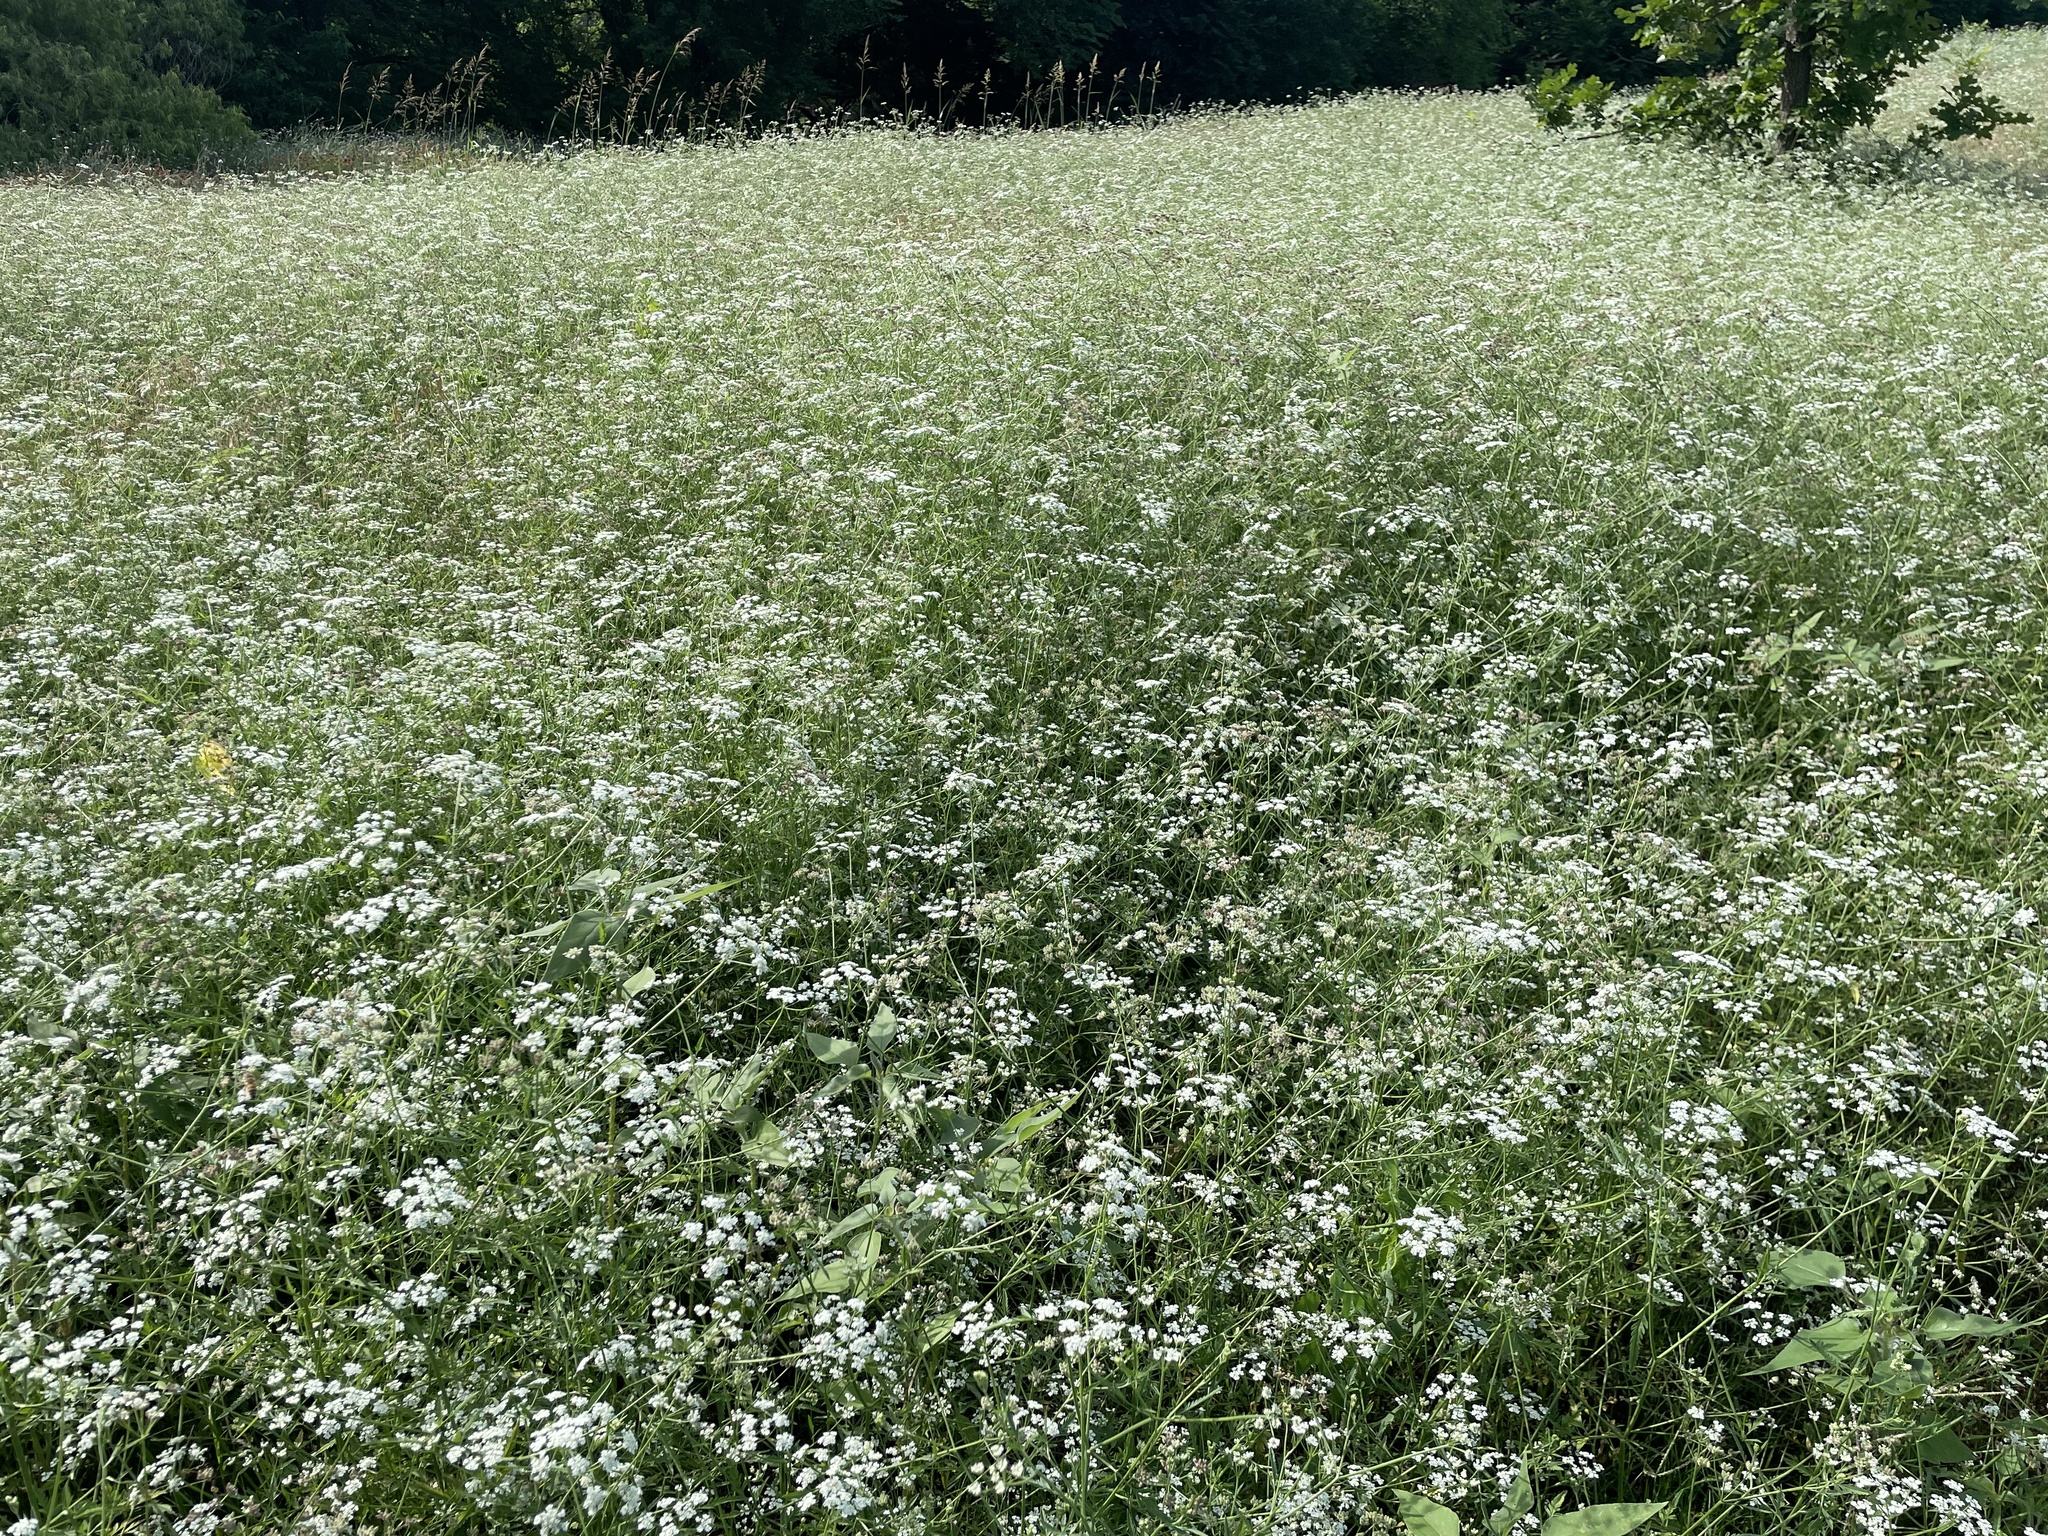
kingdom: Plantae
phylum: Tracheophyta
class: Magnoliopsida
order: Apiales
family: Apiaceae
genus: Torilis
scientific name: Torilis arvensis
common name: Spreading hedge-parsley
